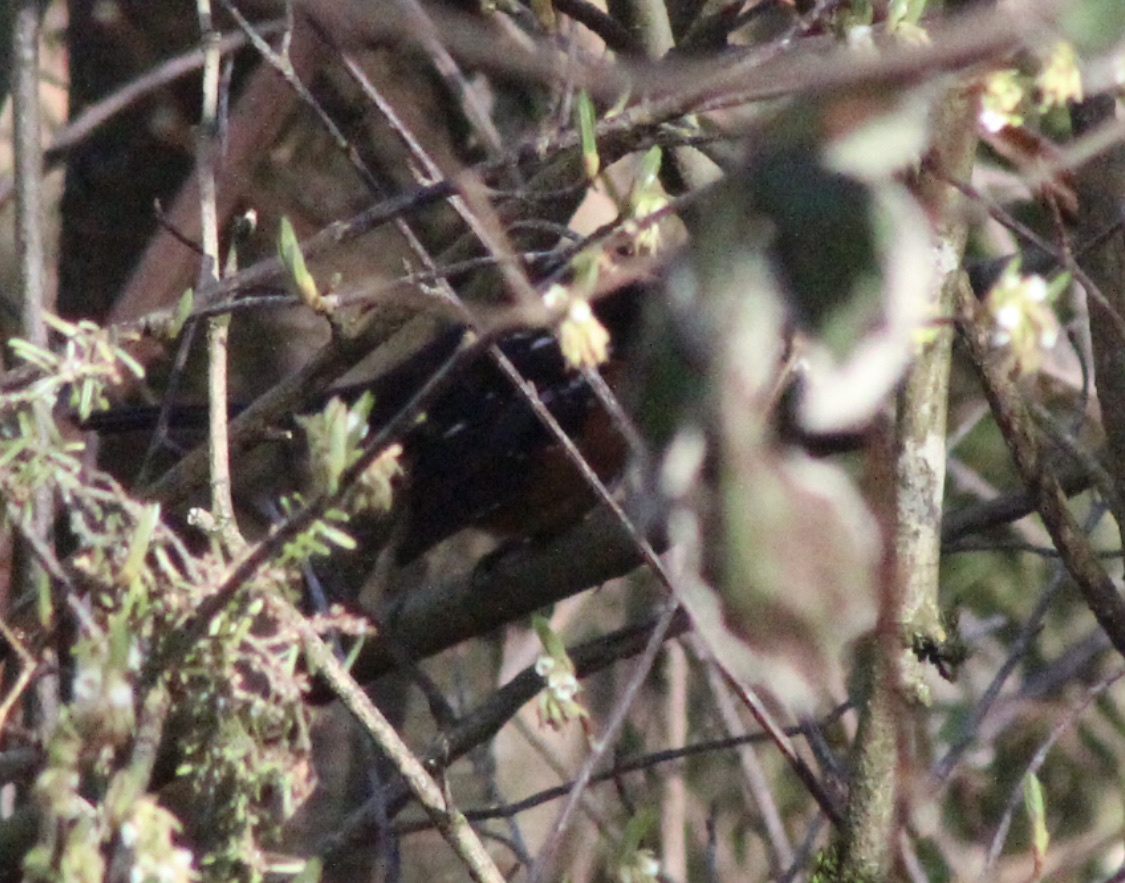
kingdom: Animalia
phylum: Chordata
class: Aves
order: Passeriformes
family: Passerellidae
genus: Pipilo
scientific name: Pipilo maculatus
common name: Spotted towhee
